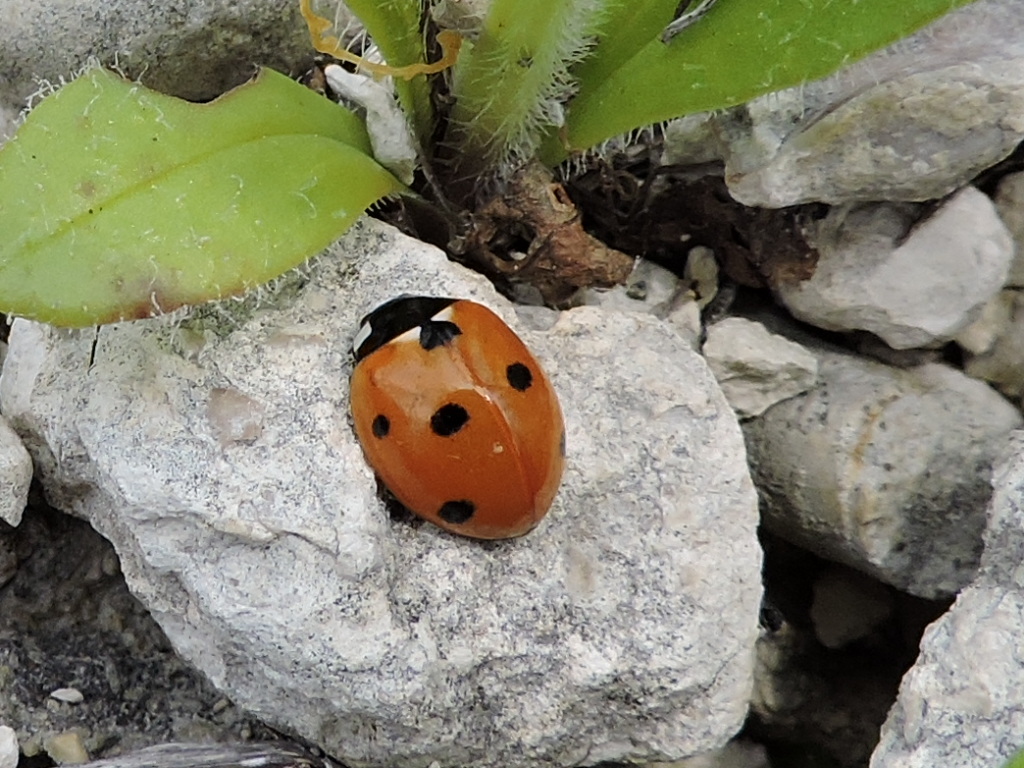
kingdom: Animalia
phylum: Arthropoda
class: Insecta
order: Coleoptera
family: Coccinellidae
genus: Coccinella
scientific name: Coccinella septempunctata
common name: Sevenspotted lady beetle
